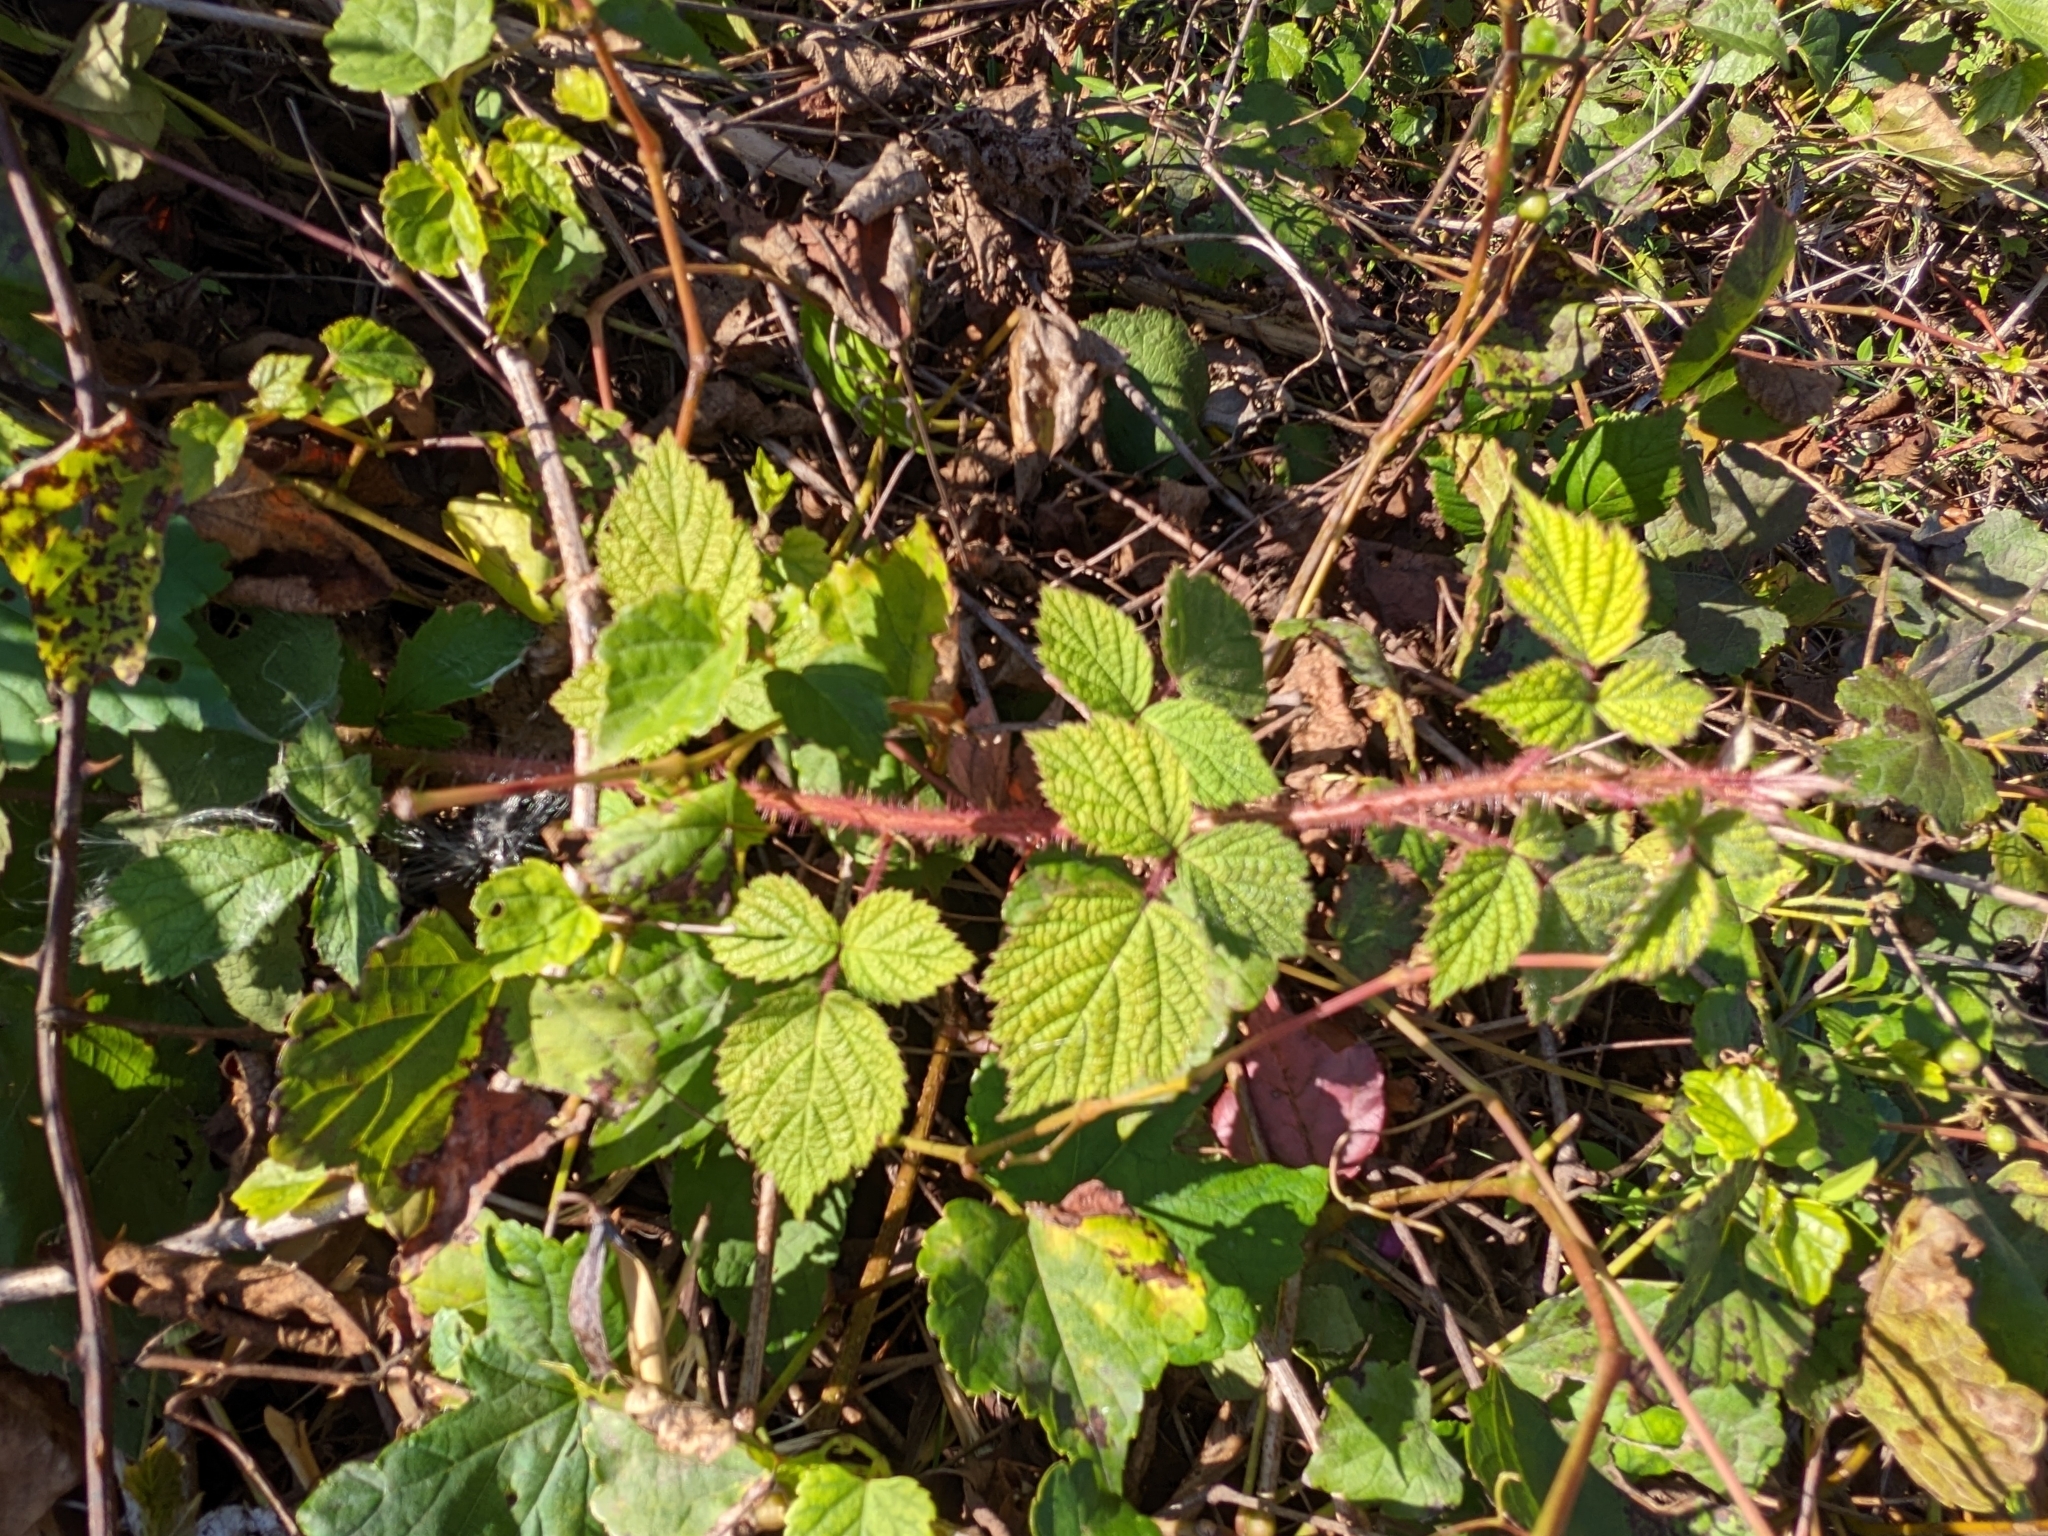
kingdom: Plantae
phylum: Tracheophyta
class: Magnoliopsida
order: Rosales
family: Rosaceae
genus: Rubus
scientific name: Rubus phoenicolasius
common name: Japanese wineberry
